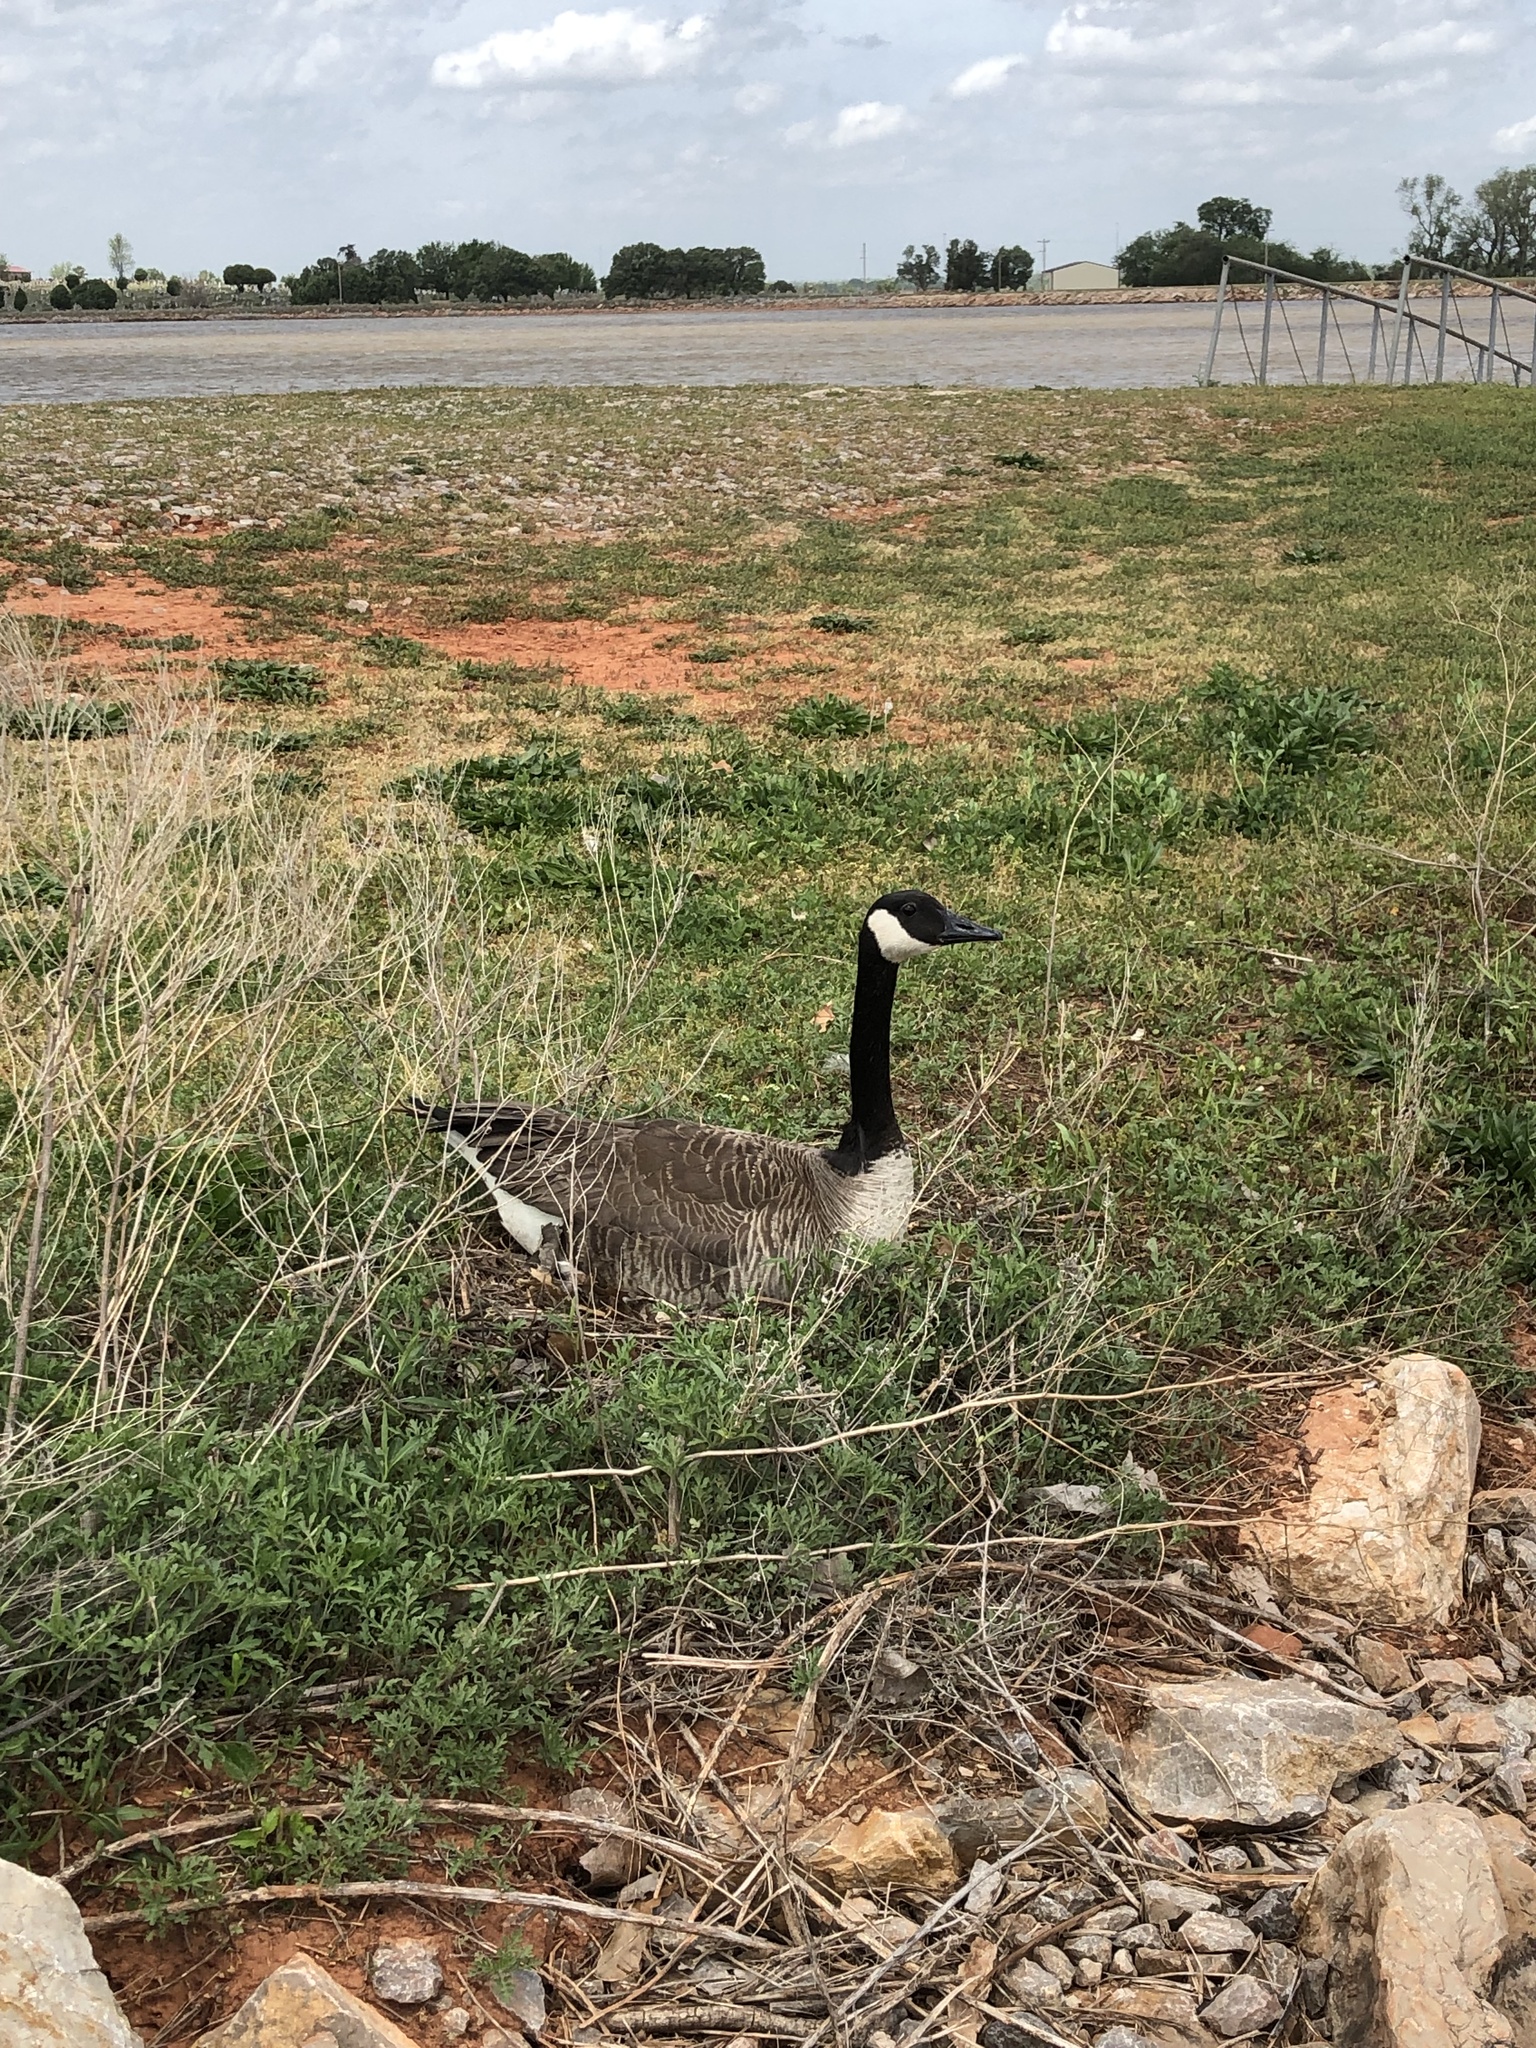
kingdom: Animalia
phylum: Chordata
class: Aves
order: Anseriformes
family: Anatidae
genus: Branta
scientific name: Branta canadensis
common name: Canada goose
